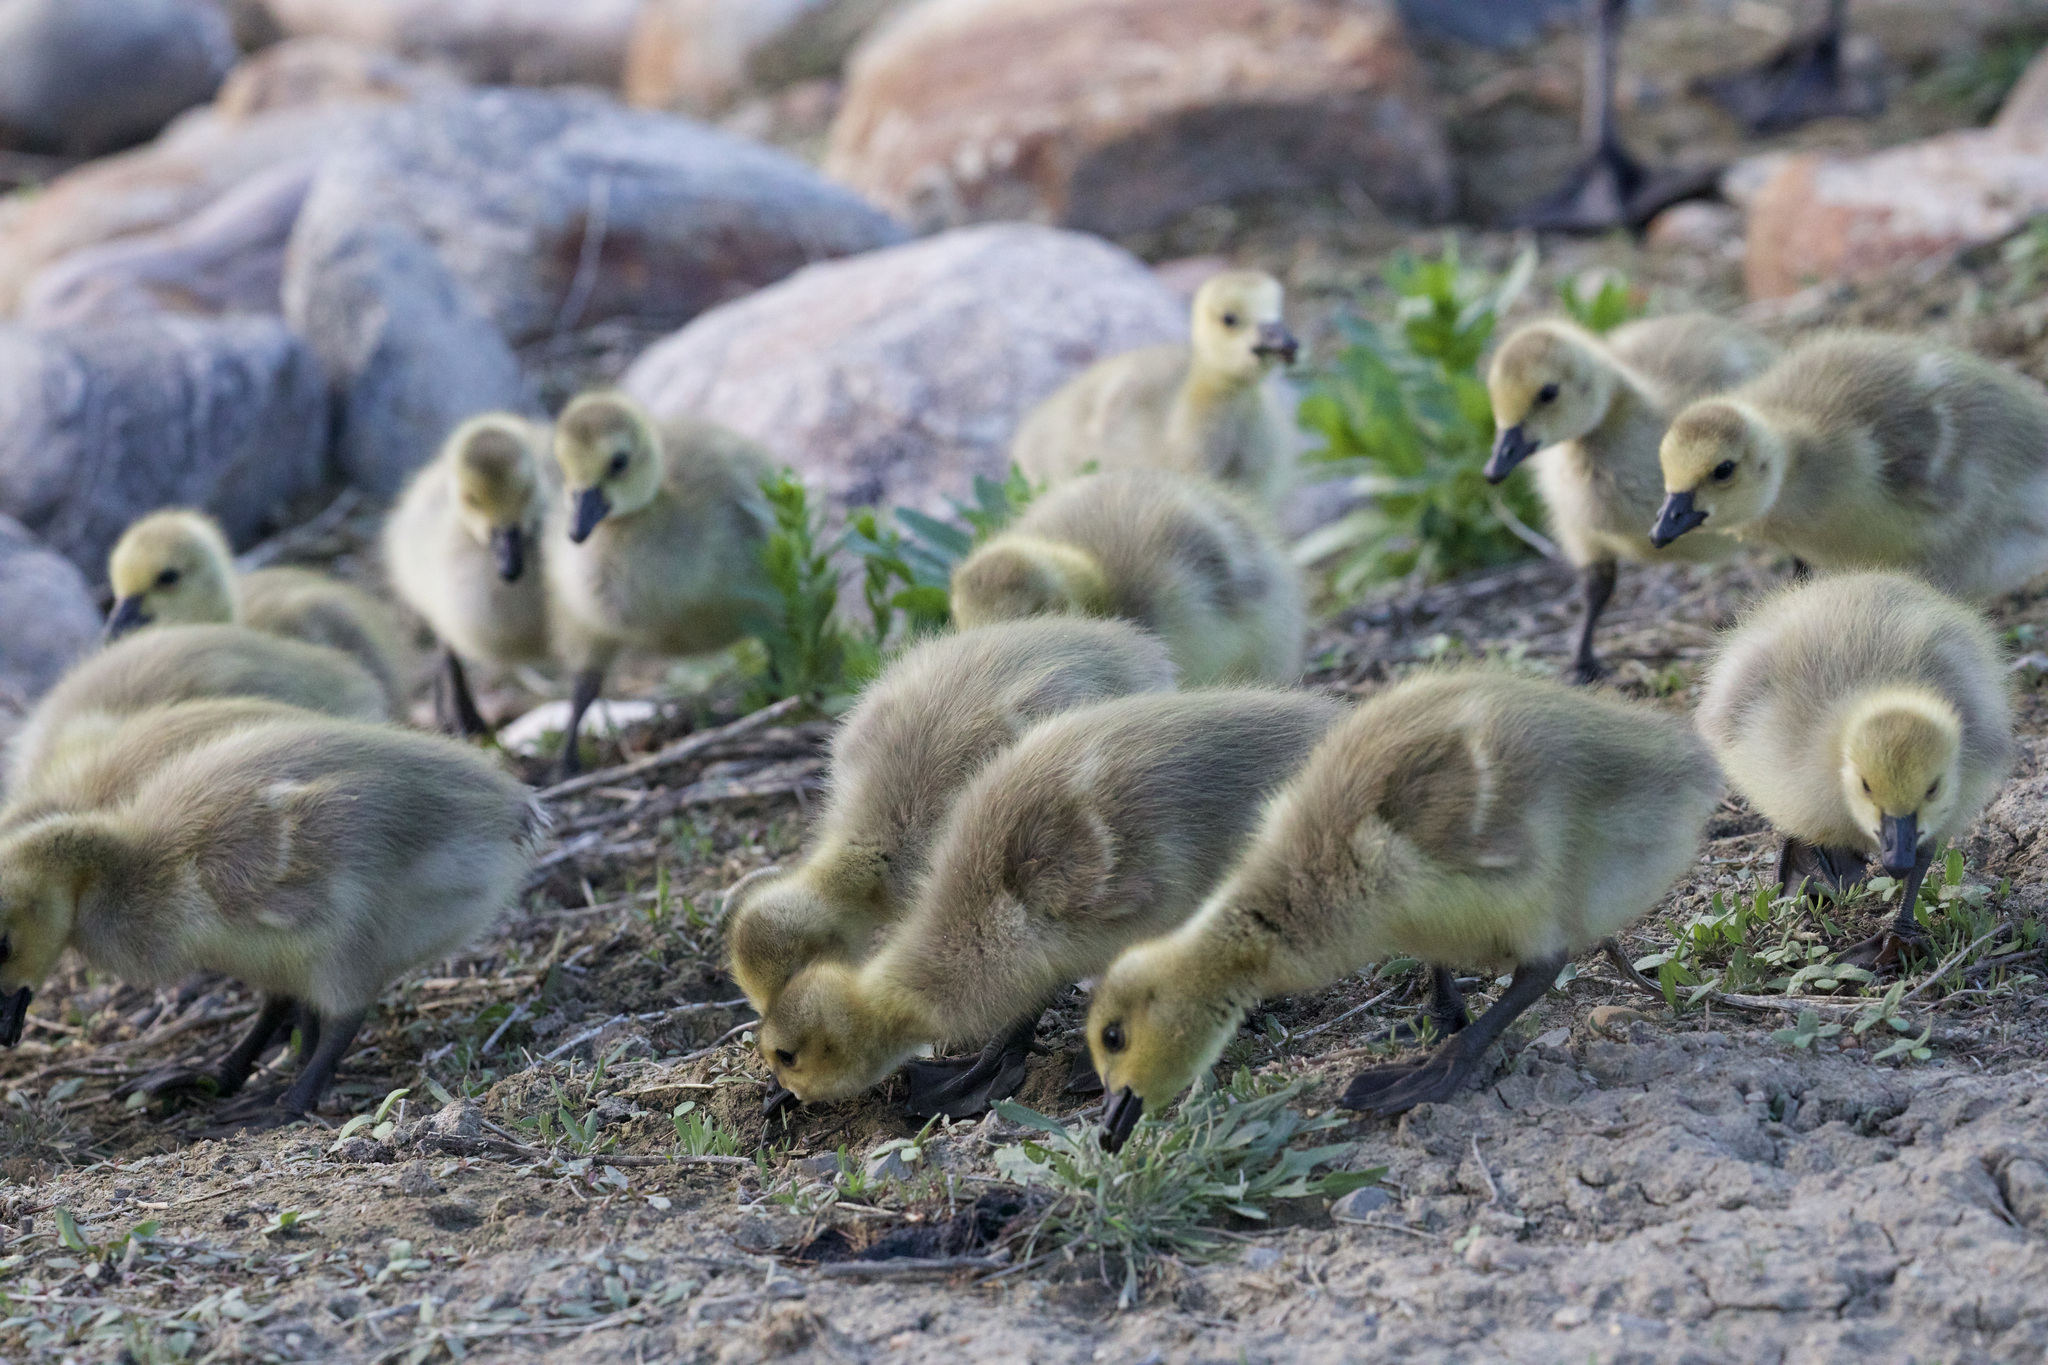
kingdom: Animalia
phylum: Chordata
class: Aves
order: Anseriformes
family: Anatidae
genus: Branta
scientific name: Branta canadensis
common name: Canada goose
